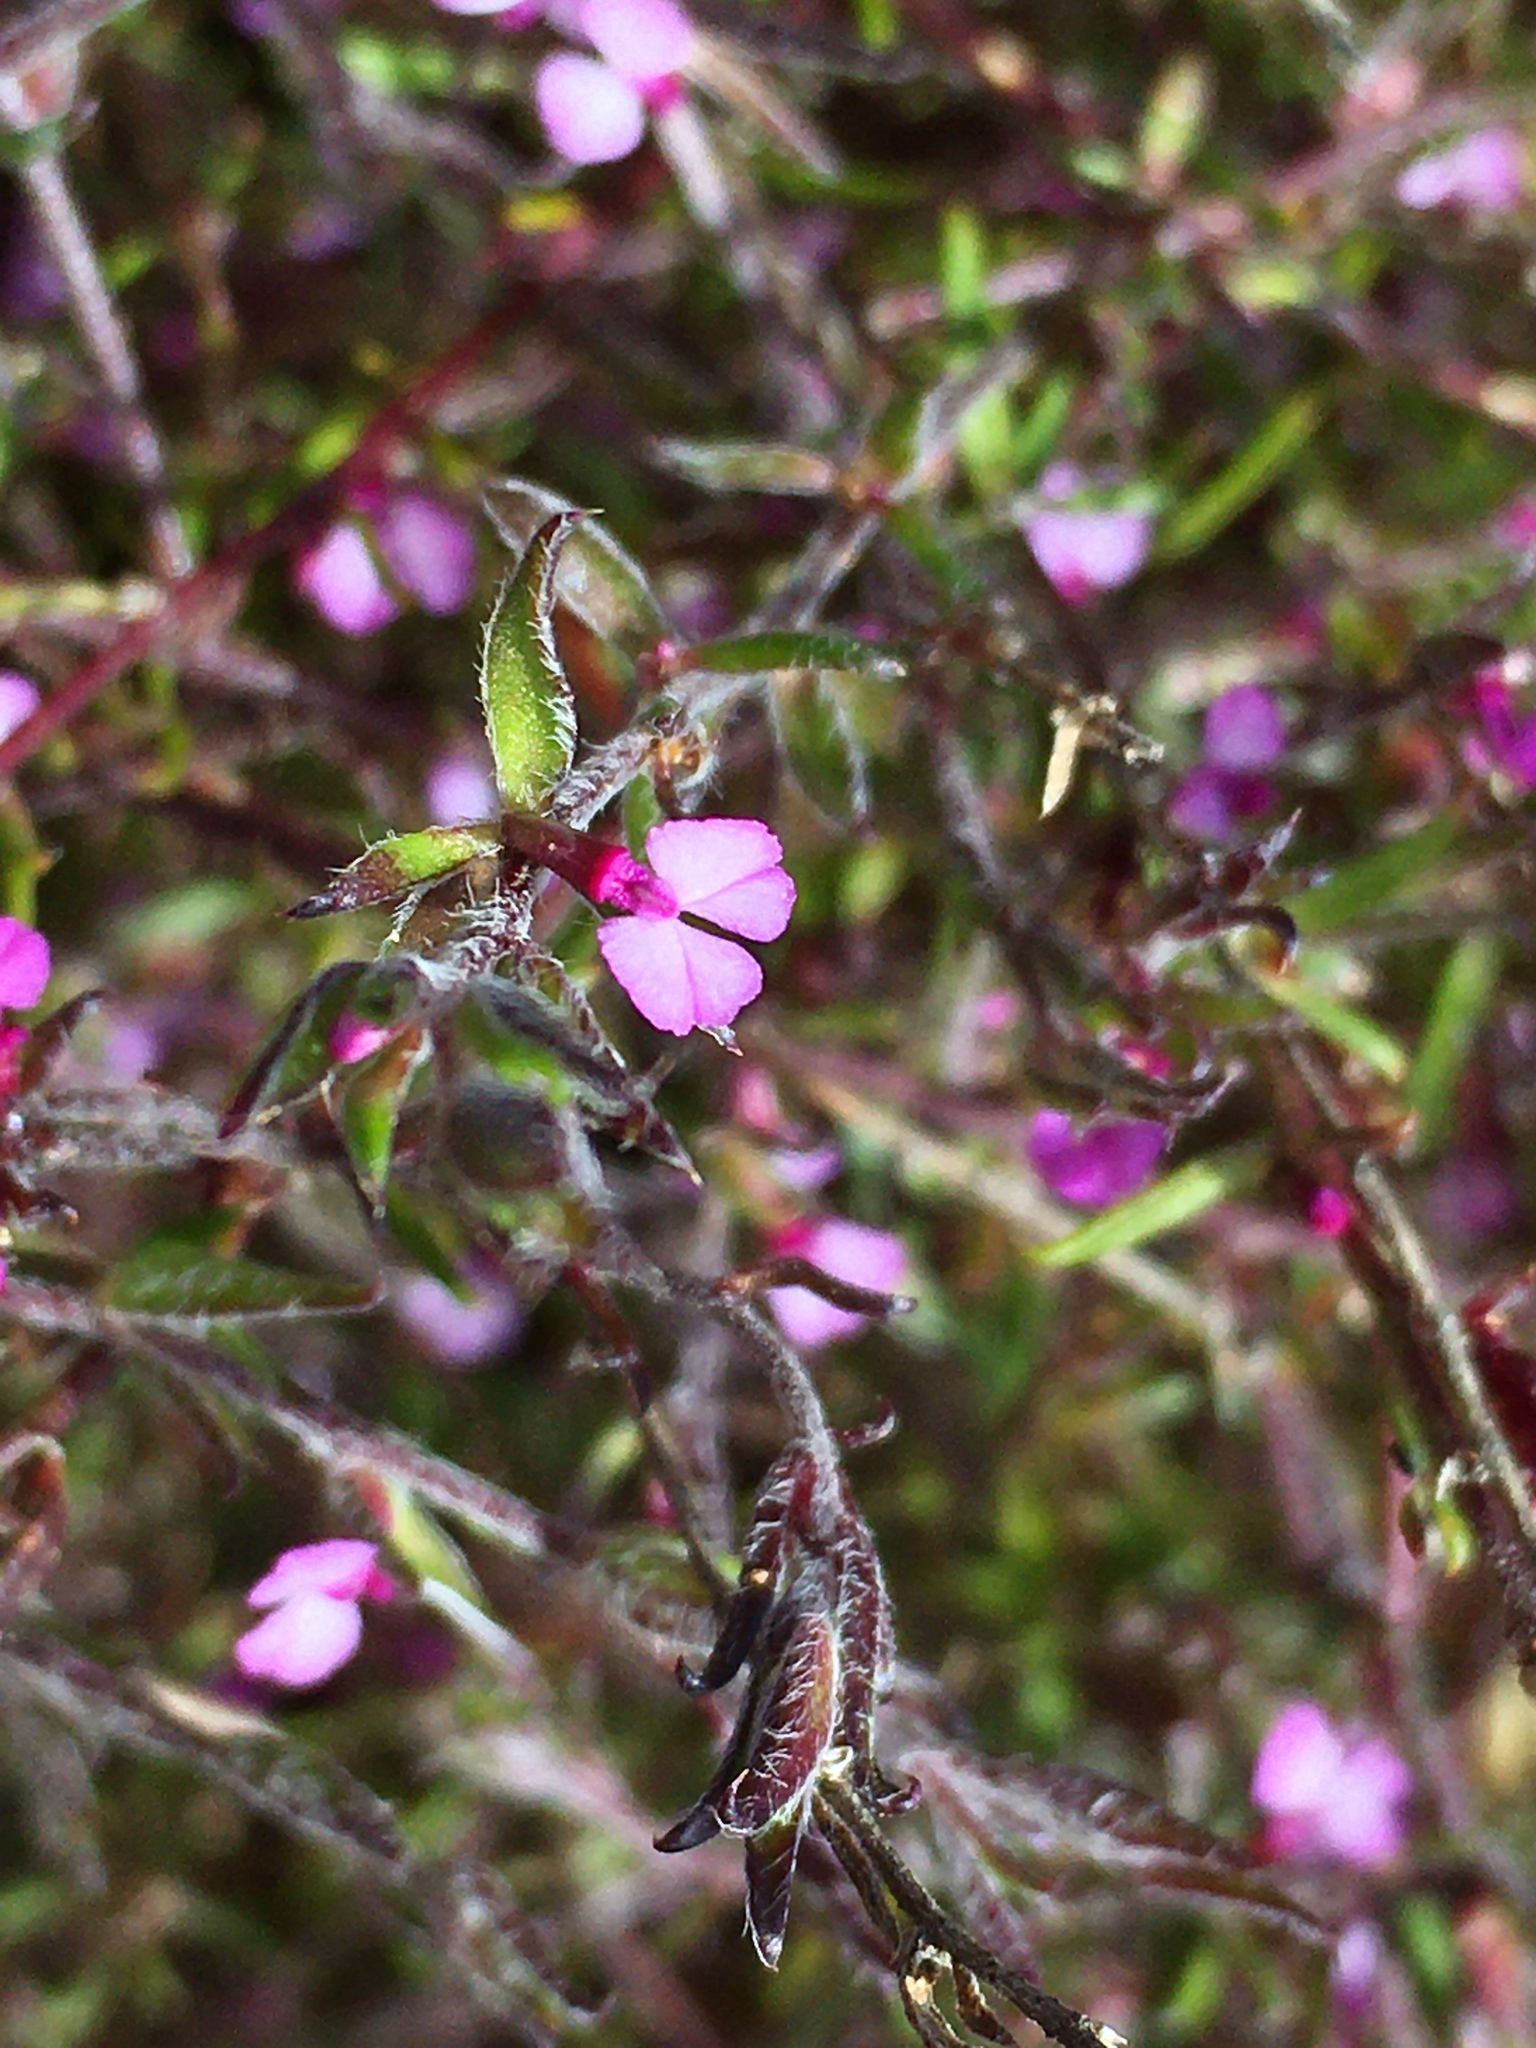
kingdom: Plantae
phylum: Tracheophyta
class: Magnoliopsida
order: Fabales
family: Polygalaceae
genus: Muraltia
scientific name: Muraltia stipulacea
